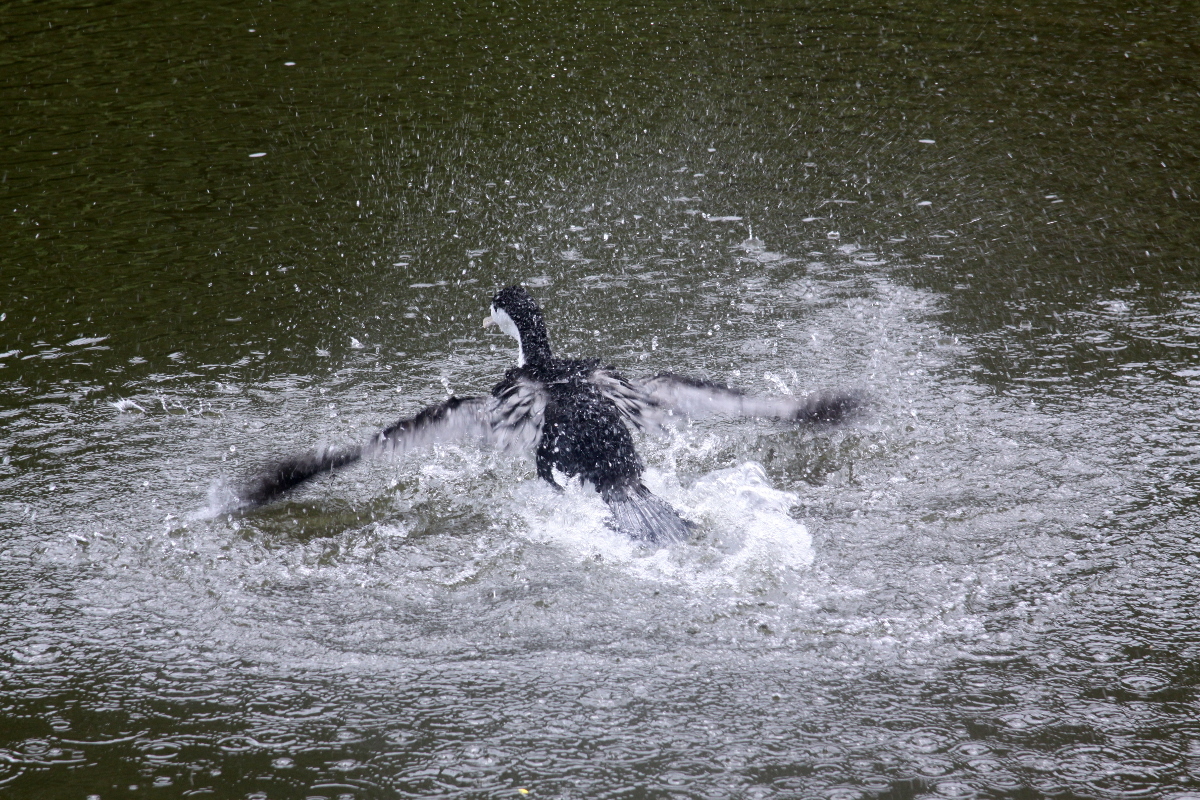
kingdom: Animalia
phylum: Chordata
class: Aves
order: Suliformes
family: Phalacrocoracidae
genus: Phalacrocorax
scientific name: Phalacrocorax varius
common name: Pied cormorant
